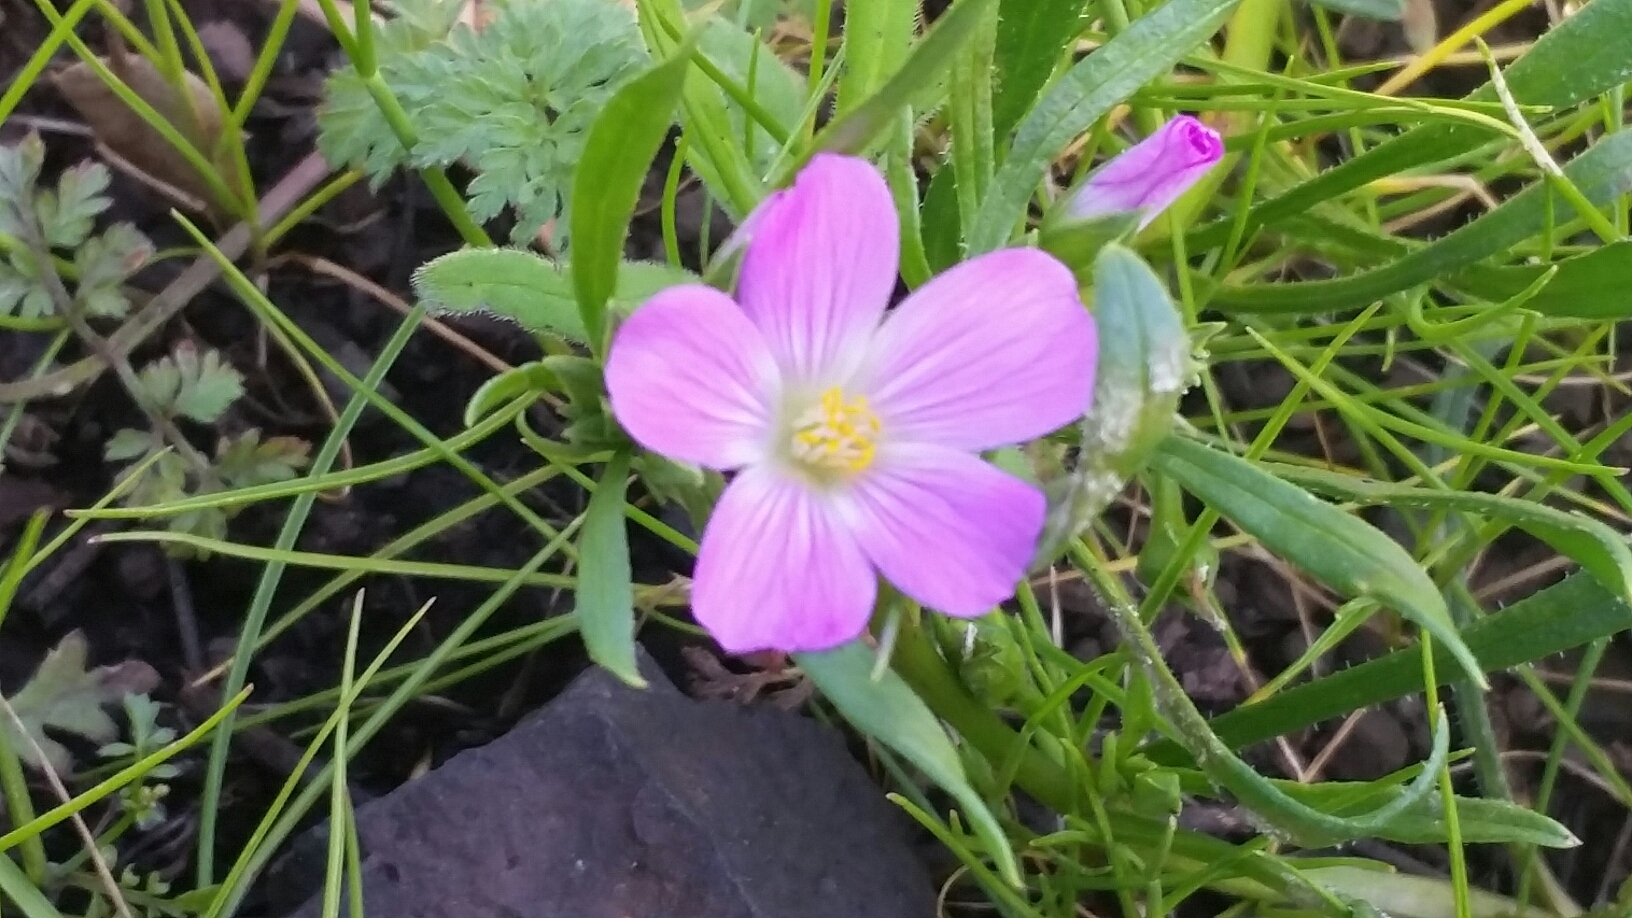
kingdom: Plantae
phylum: Tracheophyta
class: Magnoliopsida
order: Caryophyllales
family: Montiaceae
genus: Calandrinia
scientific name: Calandrinia menziesii
